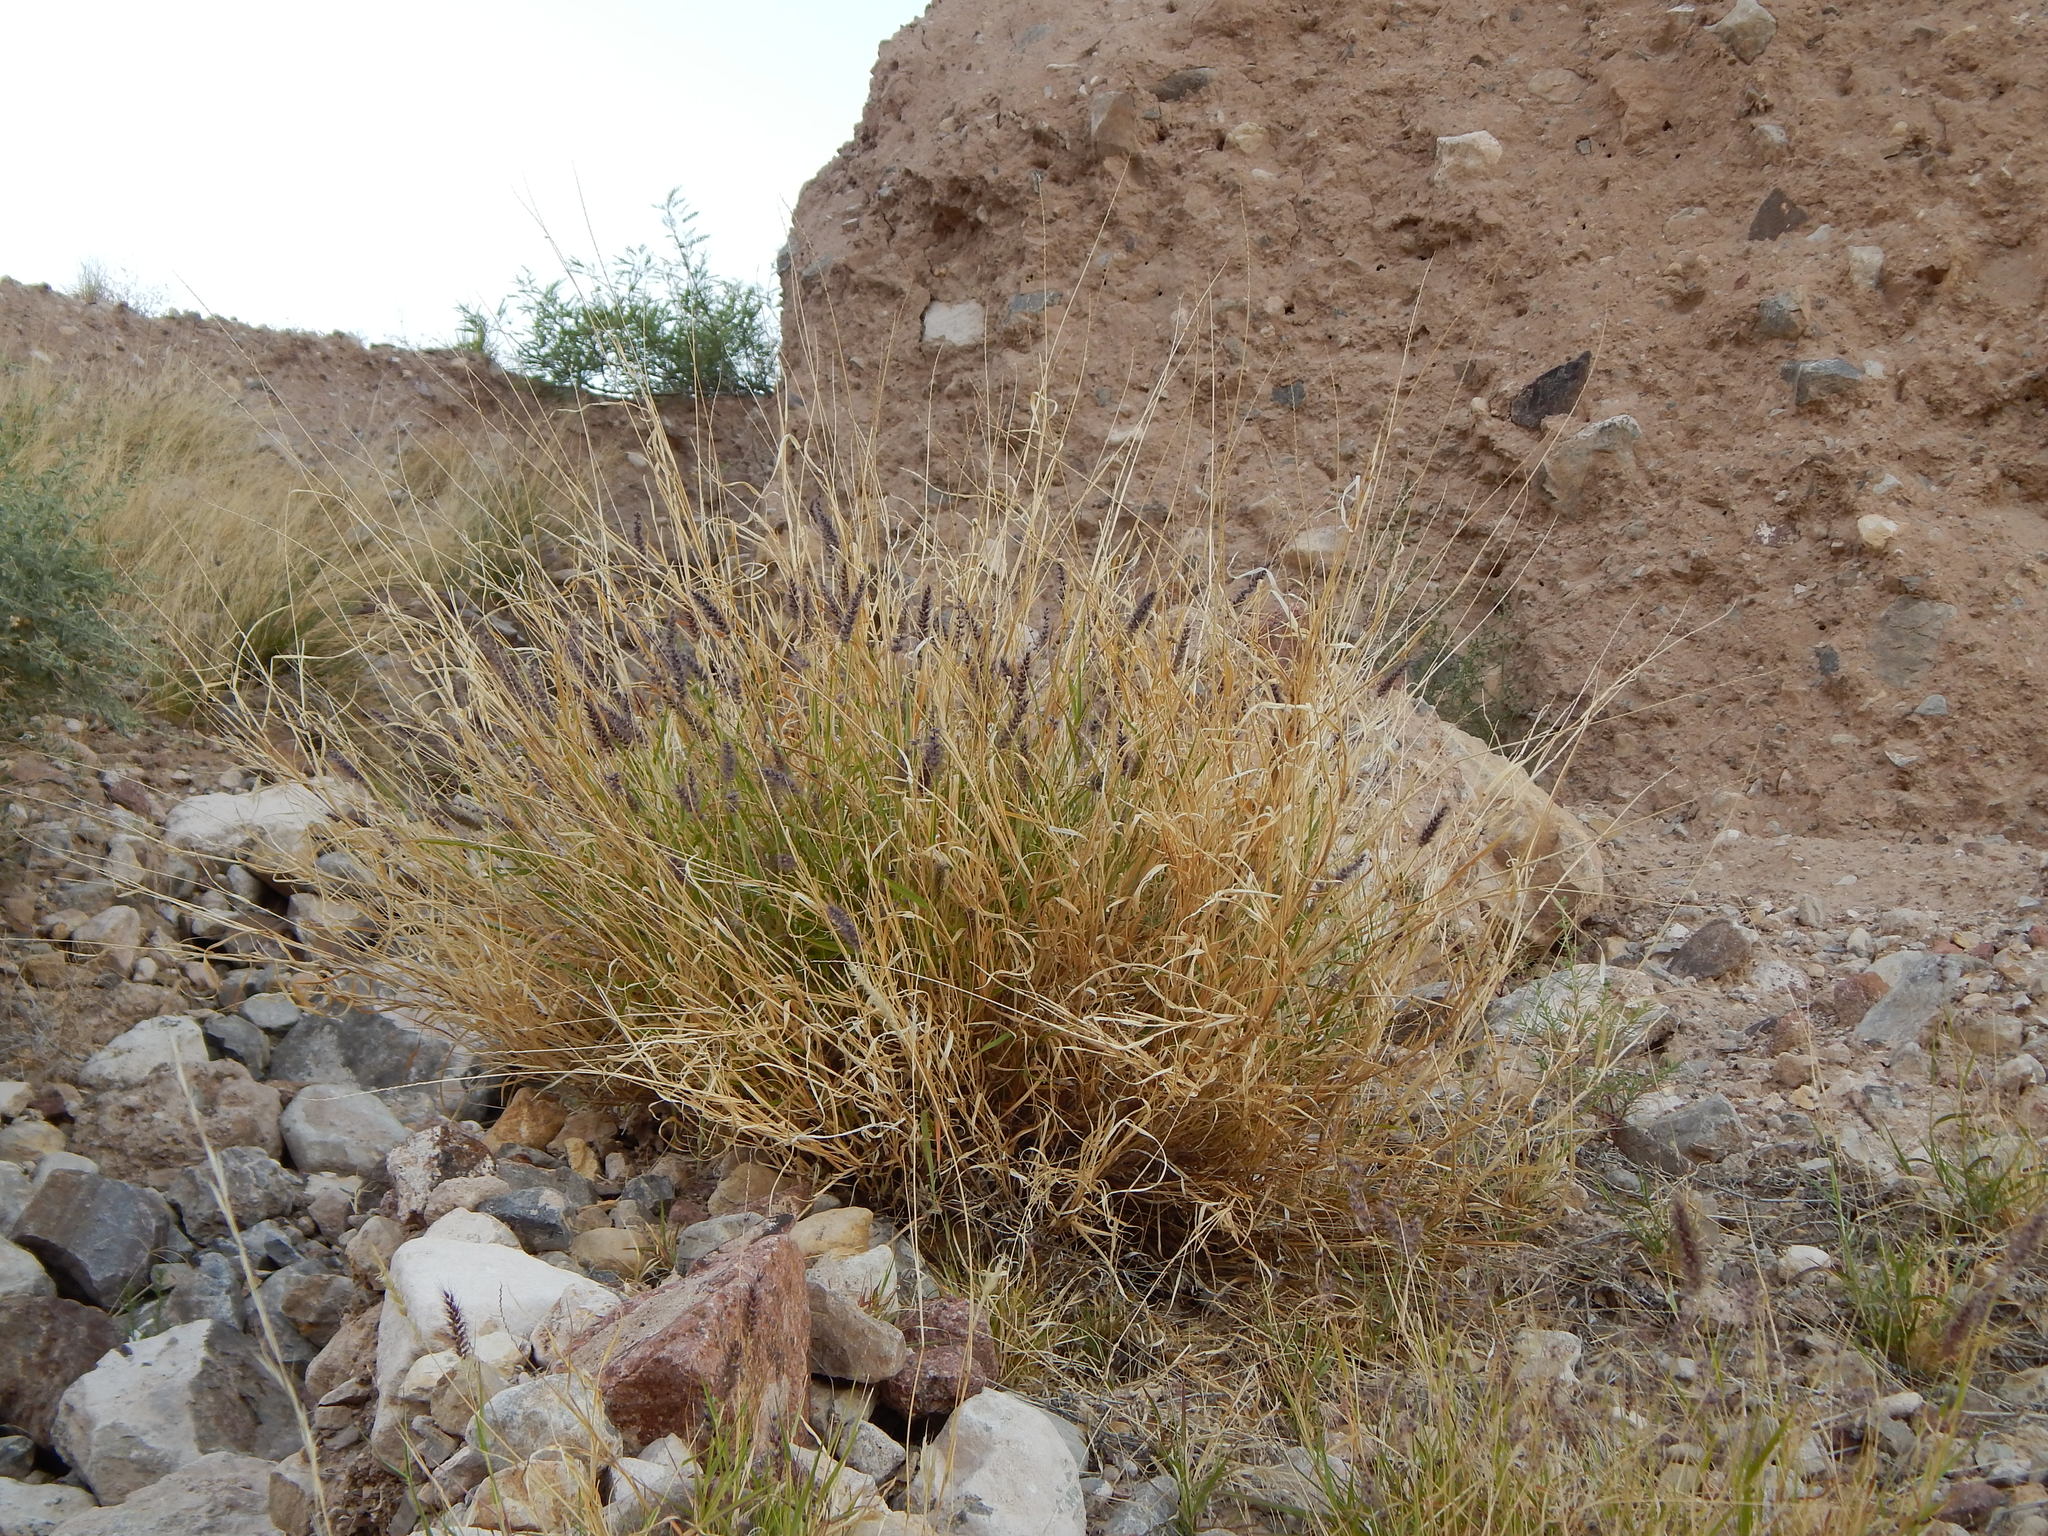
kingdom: Plantae
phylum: Tracheophyta
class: Liliopsida
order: Poales
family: Poaceae
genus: Cenchrus
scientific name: Cenchrus ciliaris
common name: Buffelgrass
